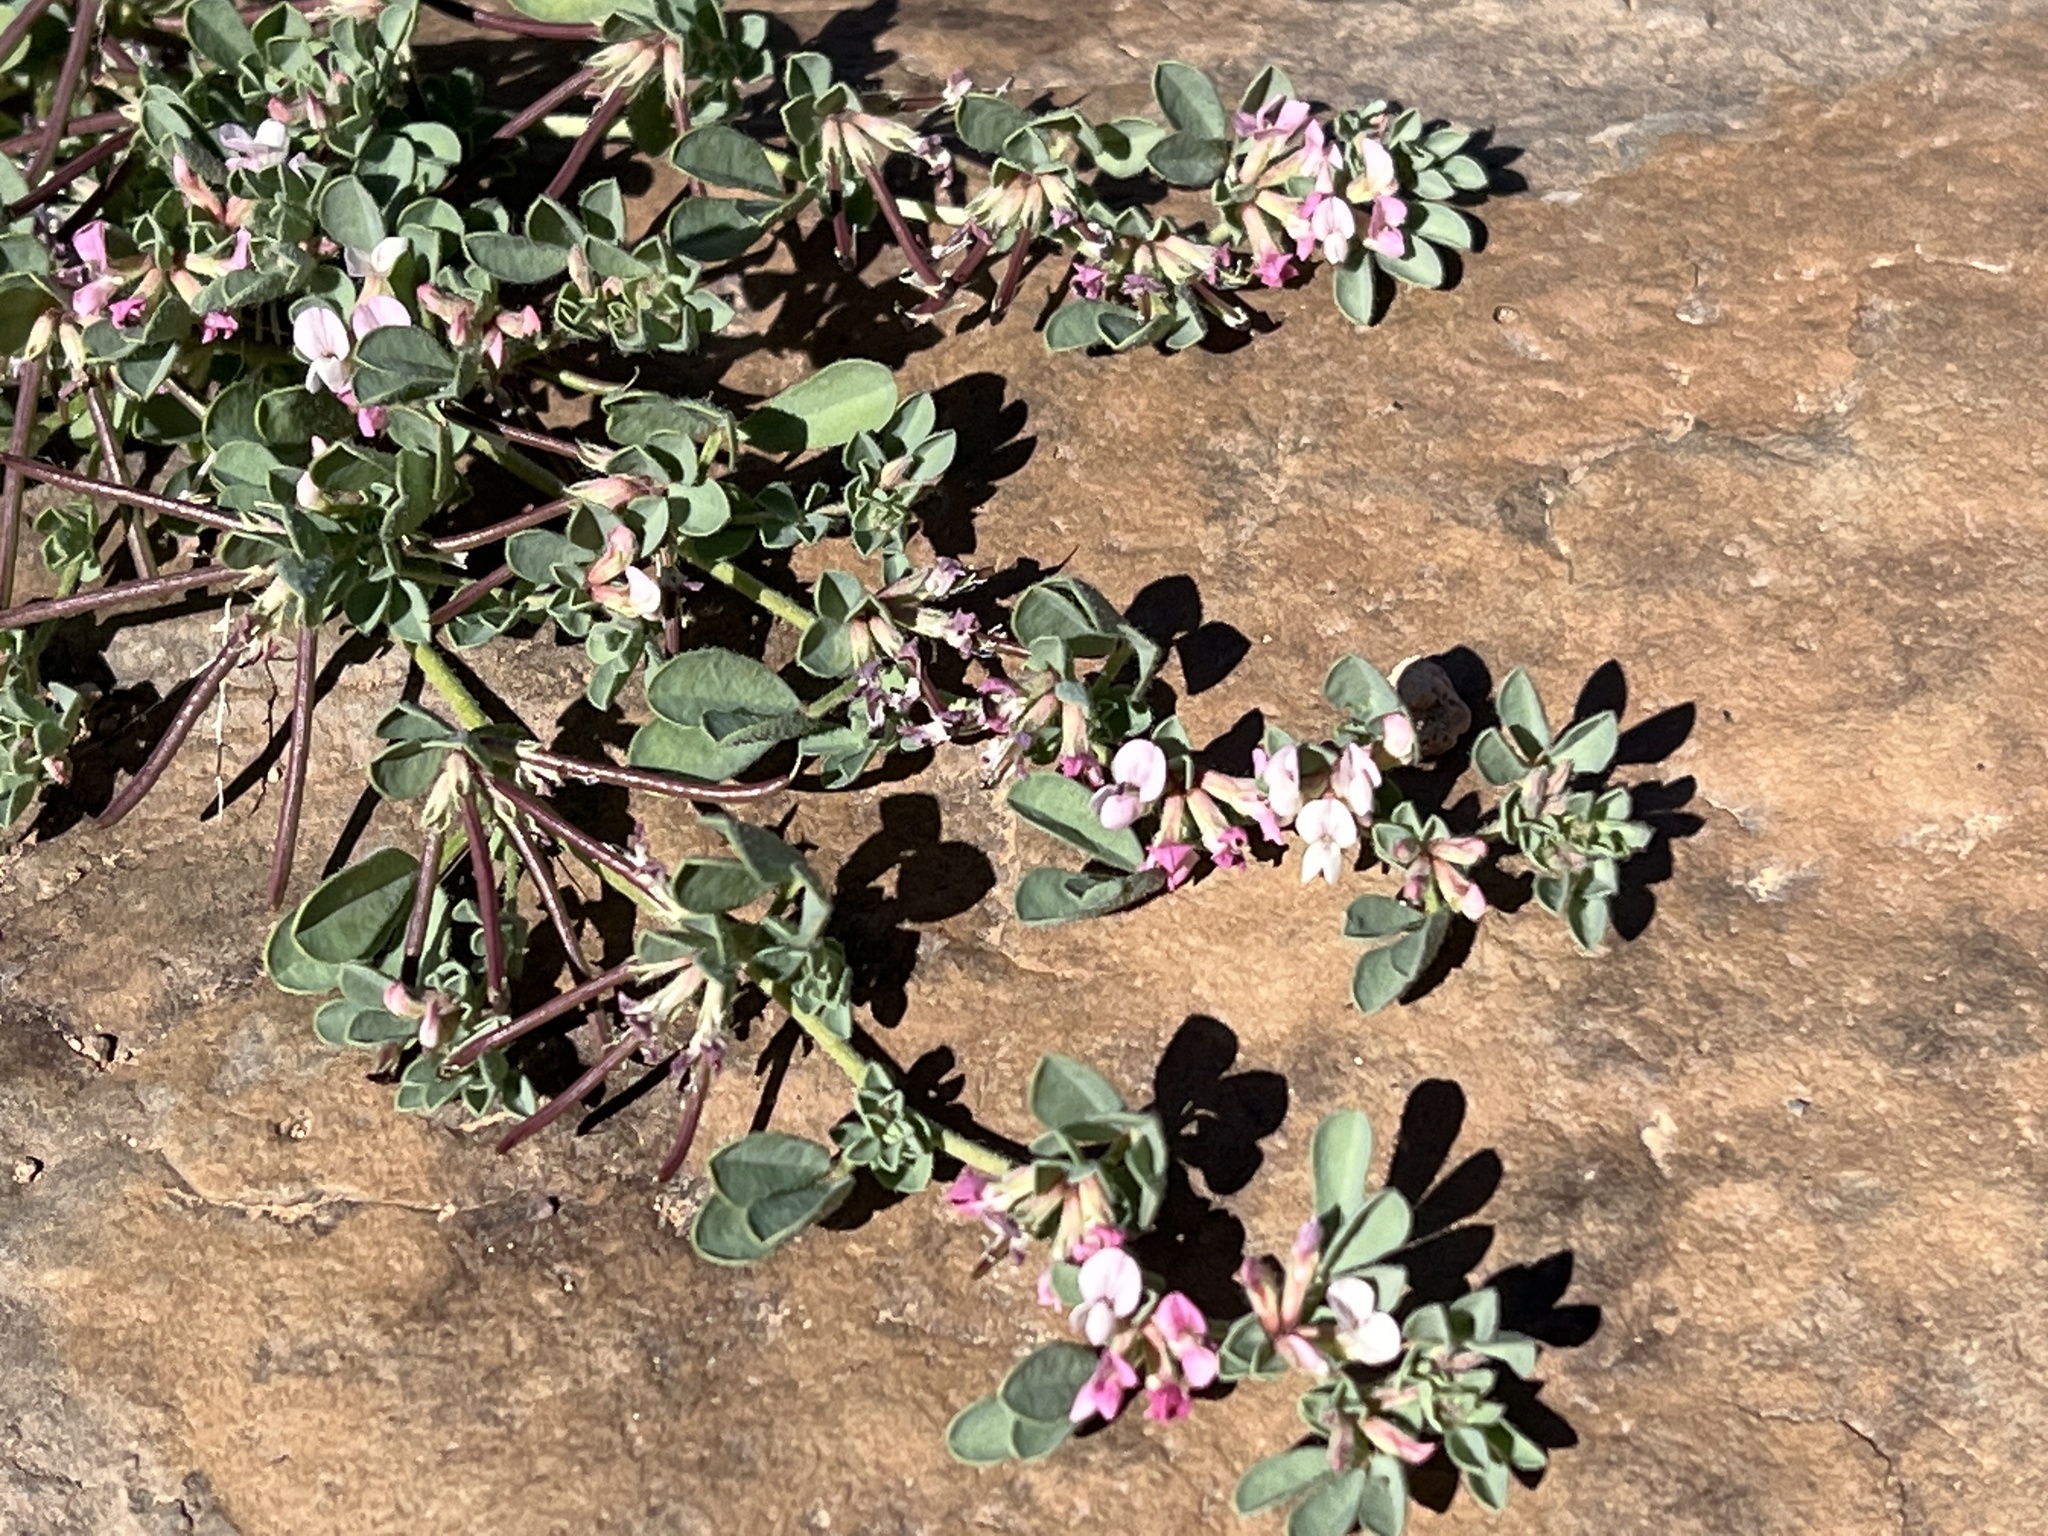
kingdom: Plantae
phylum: Tracheophyta
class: Magnoliopsida
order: Fabales
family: Fabaceae
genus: Lotus
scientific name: Lotus glinoides
